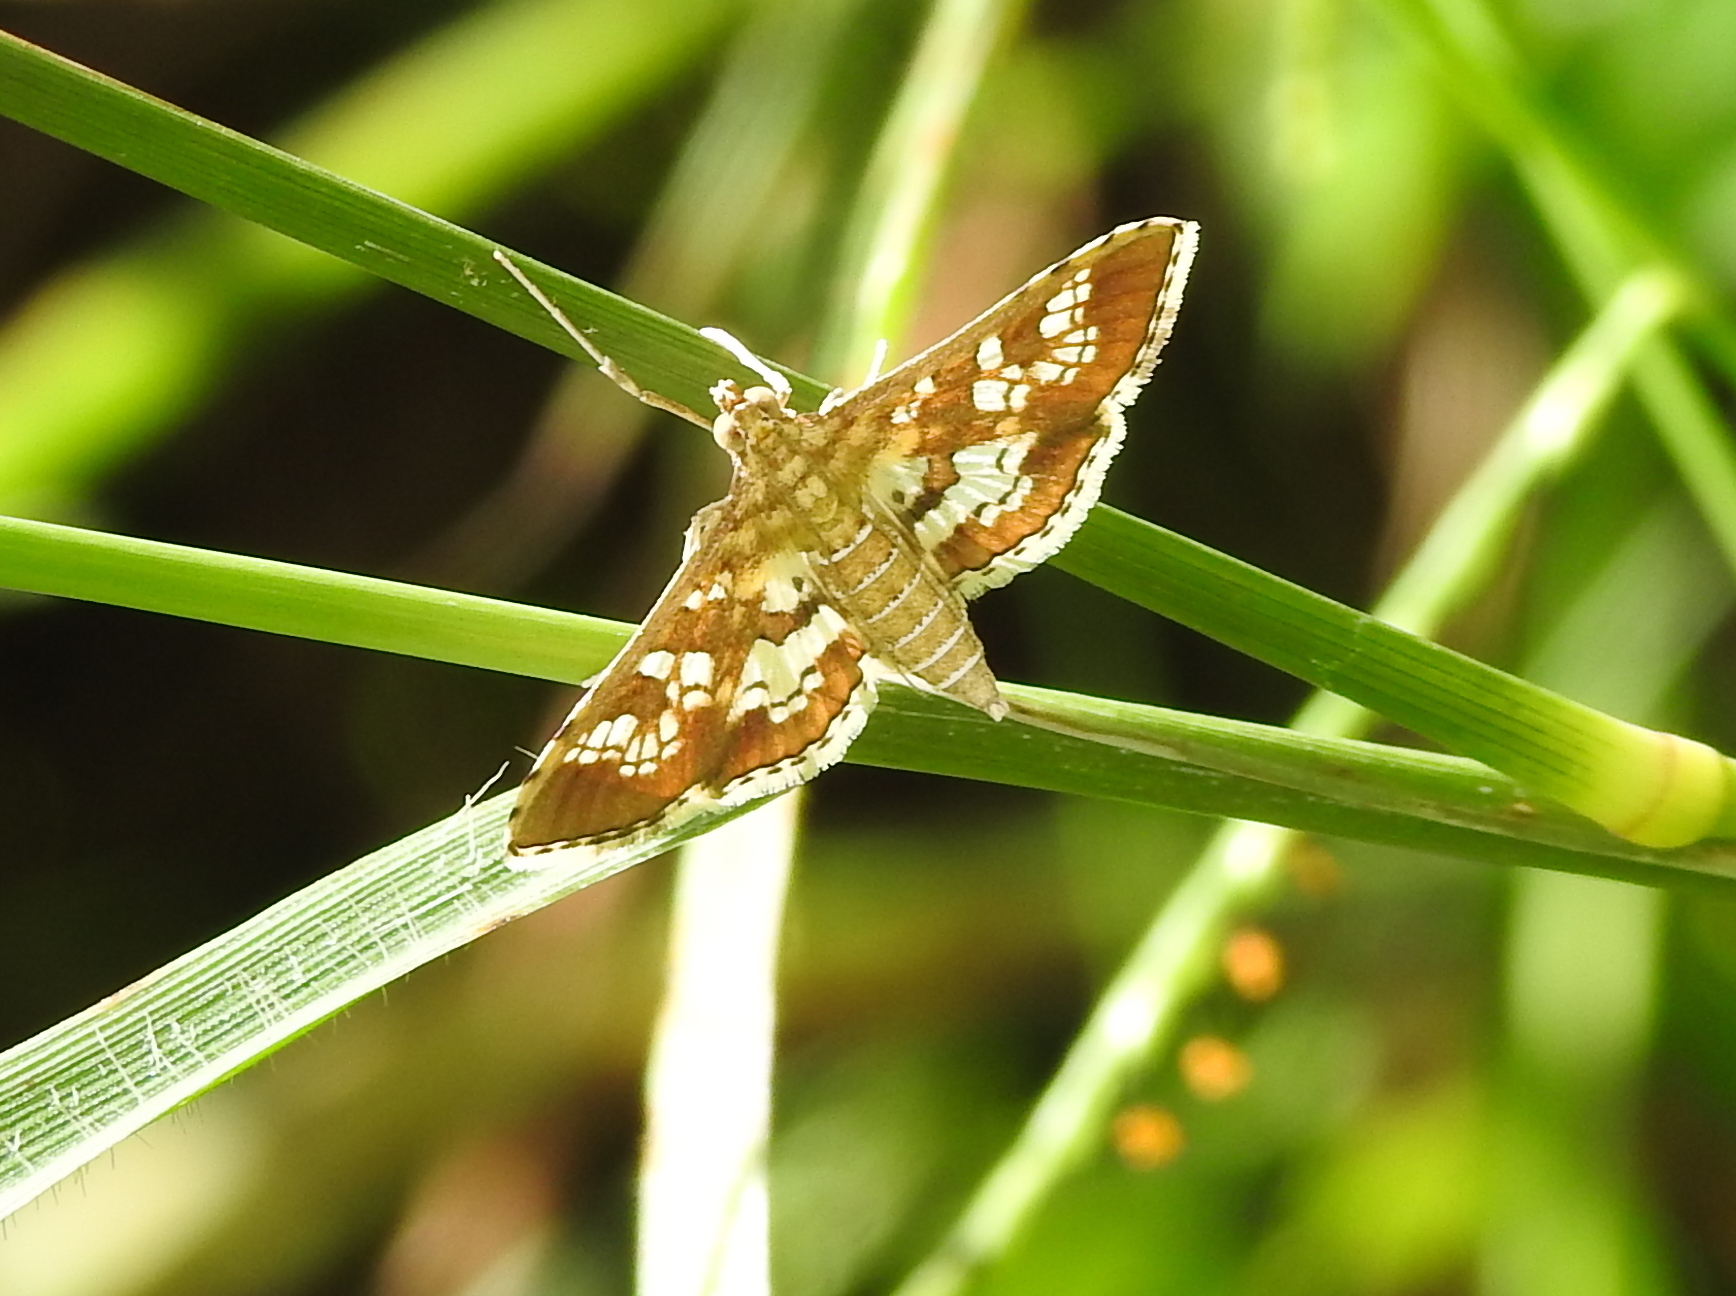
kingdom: Animalia
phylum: Arthropoda
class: Insecta
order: Lepidoptera
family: Crambidae
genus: Sameodes
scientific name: Sameodes cancellalis
